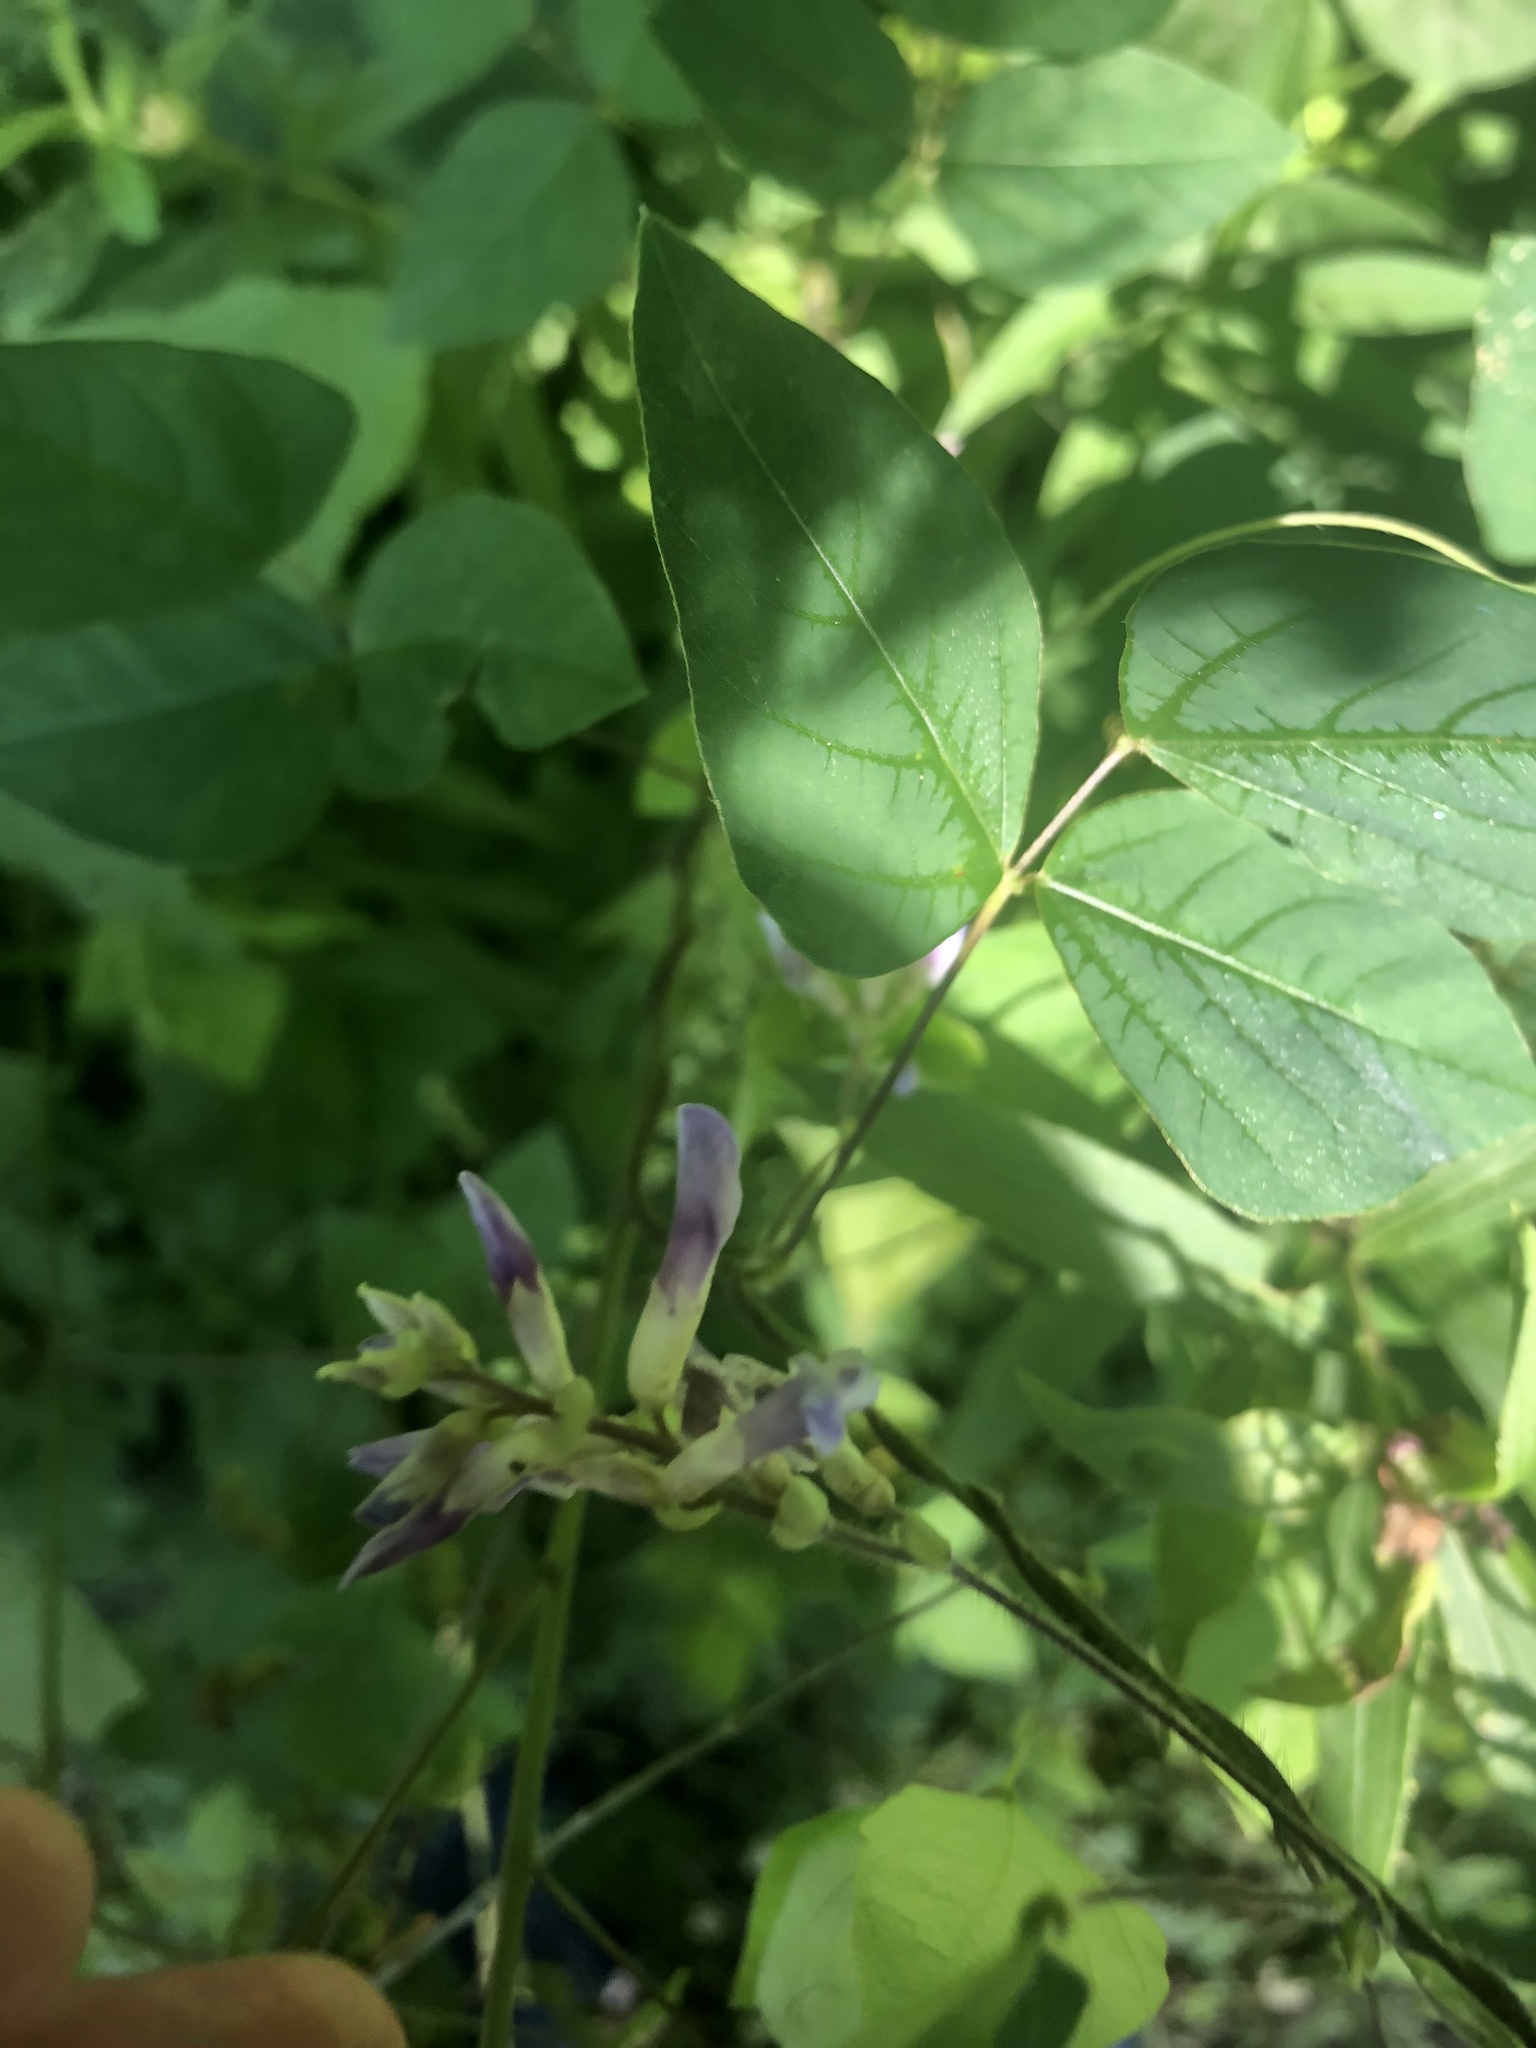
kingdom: Plantae
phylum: Tracheophyta
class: Magnoliopsida
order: Fabales
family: Fabaceae
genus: Amphicarpaea
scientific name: Amphicarpaea bracteata
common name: American hog peanut
